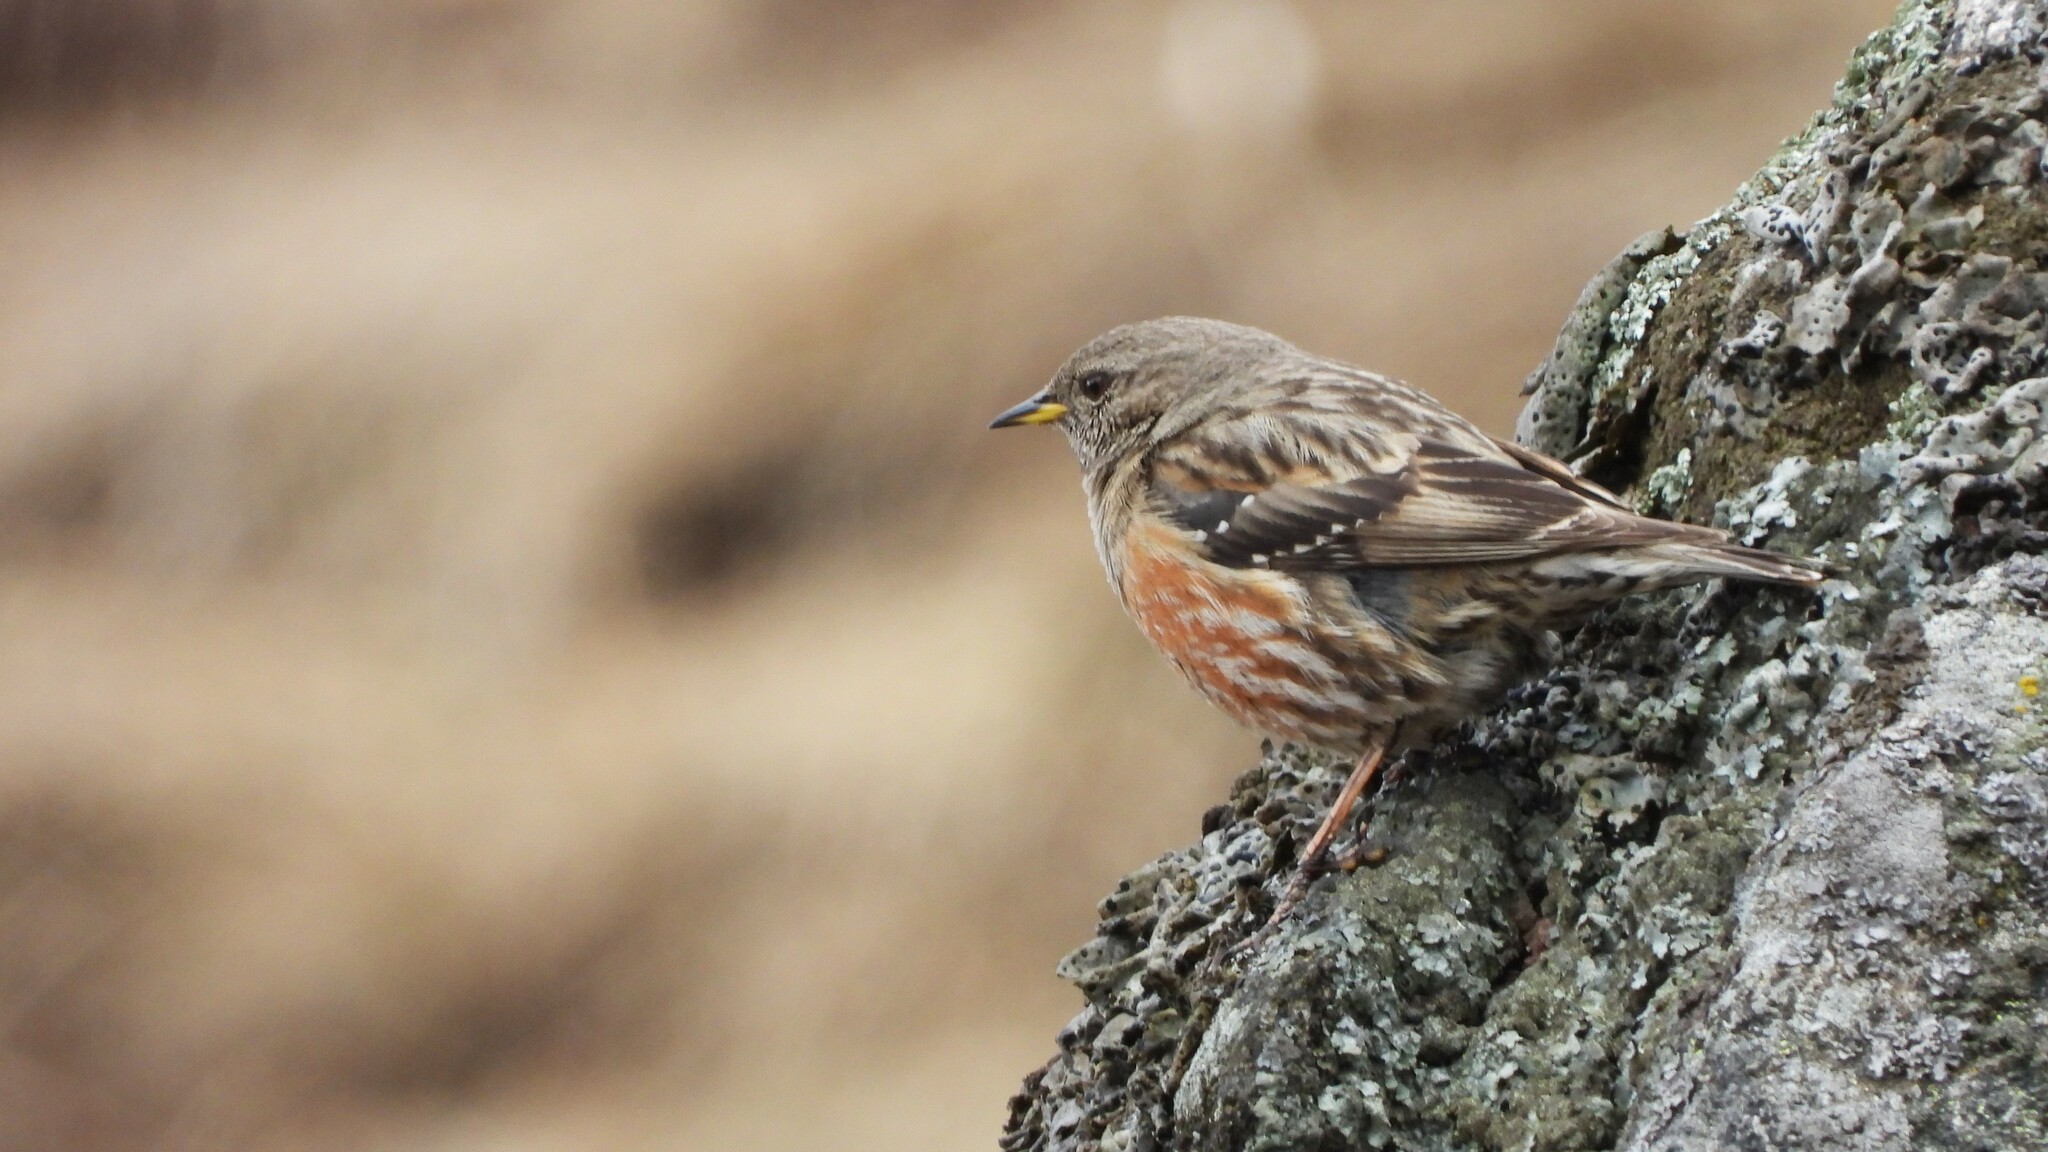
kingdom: Animalia
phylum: Chordata
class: Aves
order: Passeriformes
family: Prunellidae
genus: Prunella
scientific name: Prunella collaris
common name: Alpine accentor
